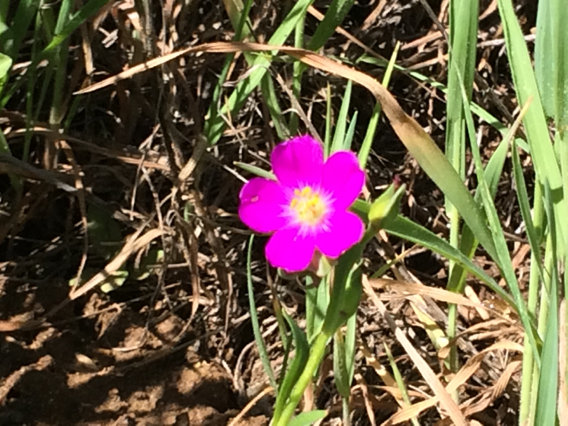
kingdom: Plantae
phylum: Tracheophyta
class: Magnoliopsida
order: Caryophyllales
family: Montiaceae
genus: Calandrinia
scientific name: Calandrinia menziesii
